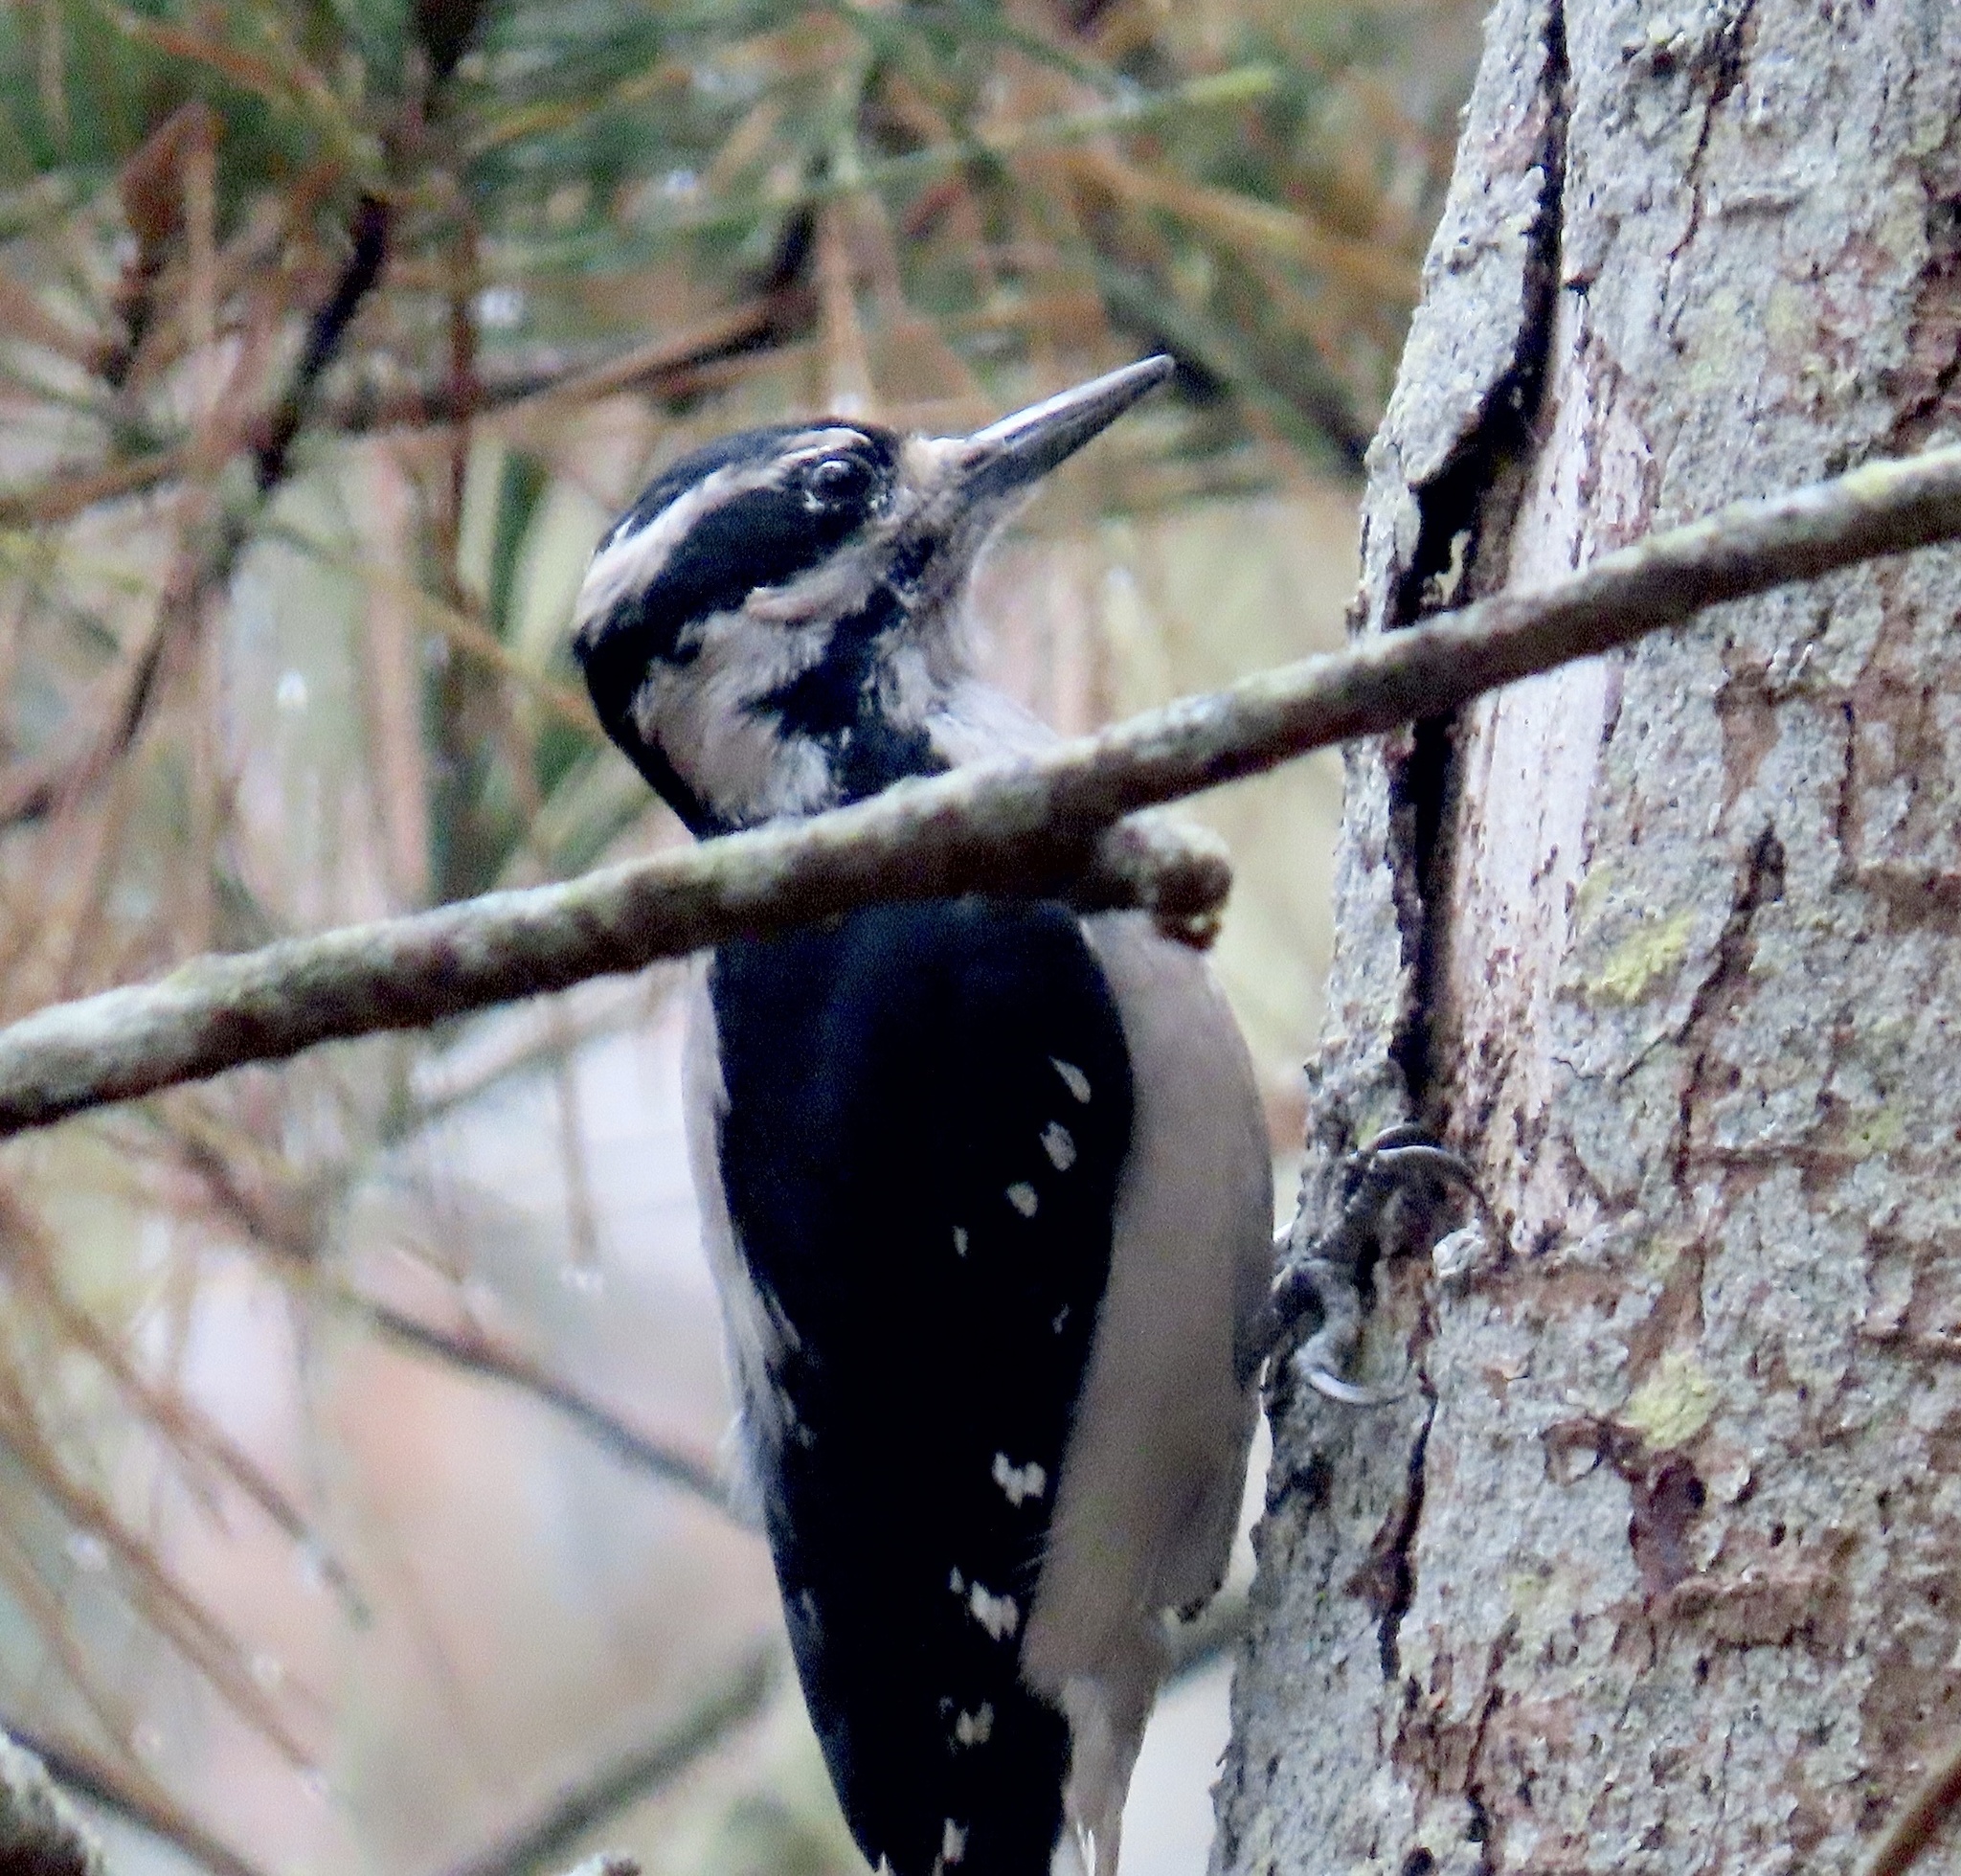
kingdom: Animalia
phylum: Chordata
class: Aves
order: Piciformes
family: Picidae
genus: Leuconotopicus
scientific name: Leuconotopicus villosus
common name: Hairy woodpecker
